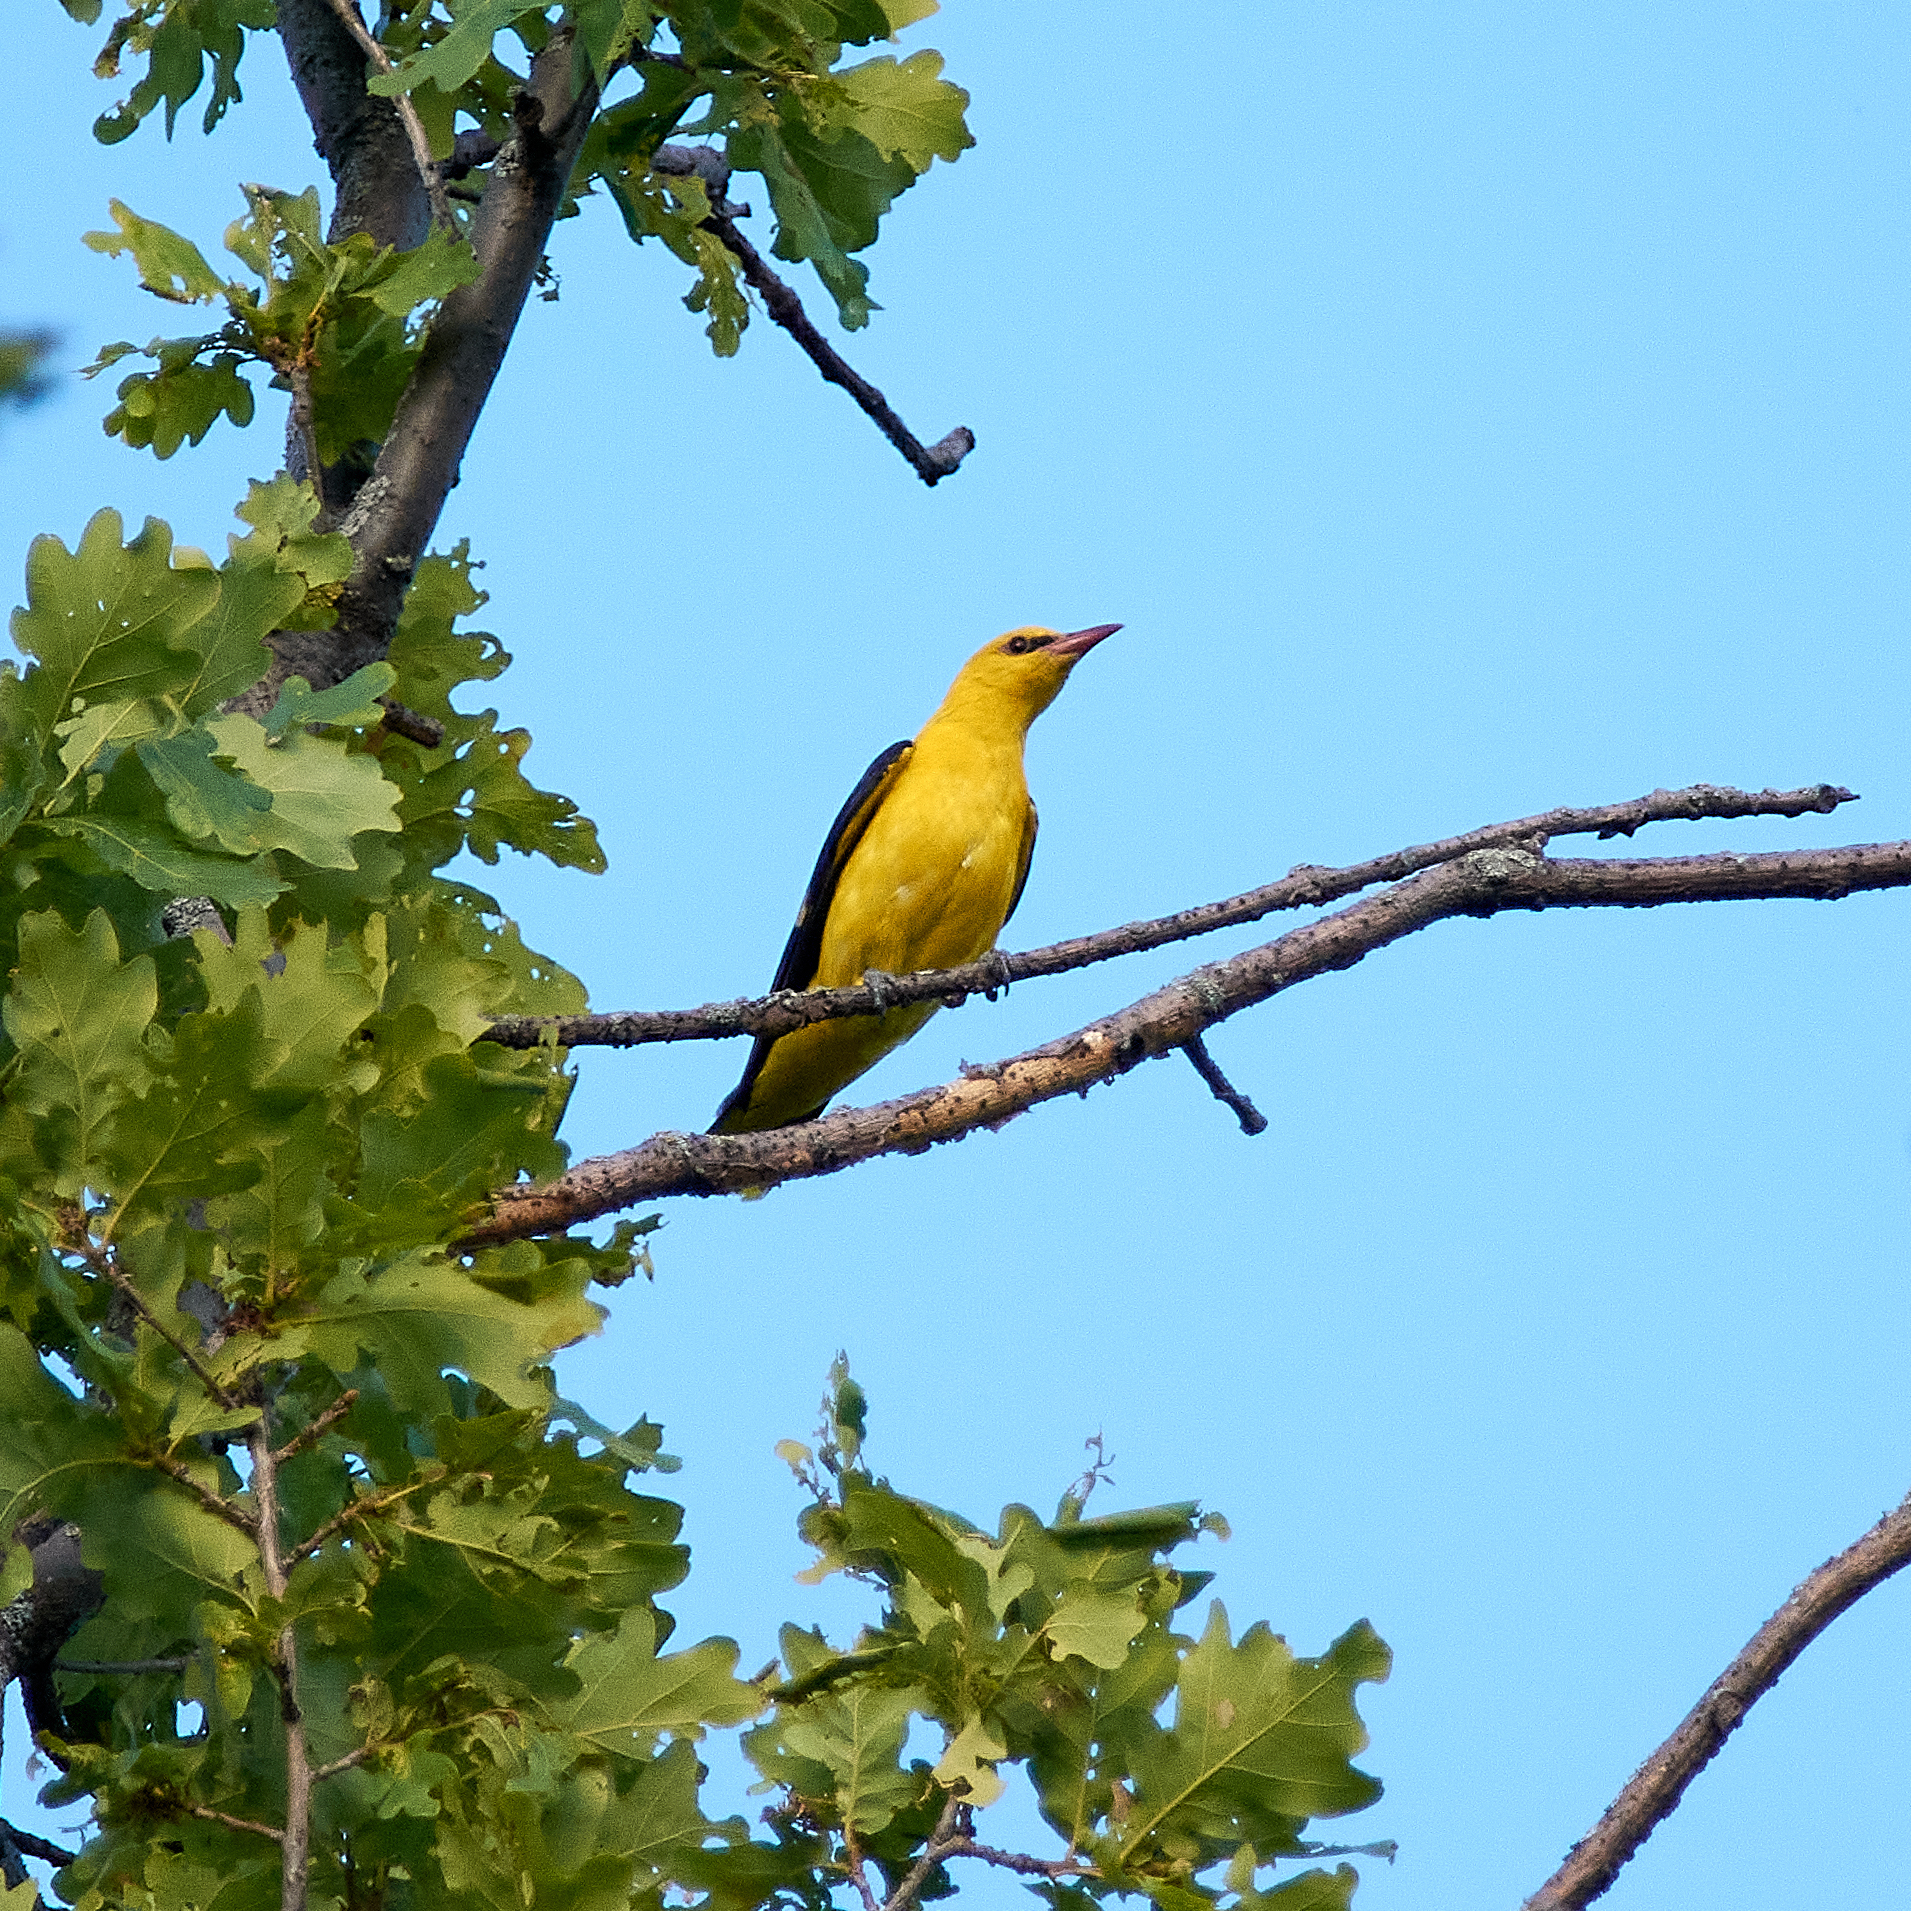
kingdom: Animalia
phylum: Chordata
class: Aves
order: Passeriformes
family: Oriolidae
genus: Oriolus
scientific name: Oriolus oriolus
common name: Eurasian golden oriole
